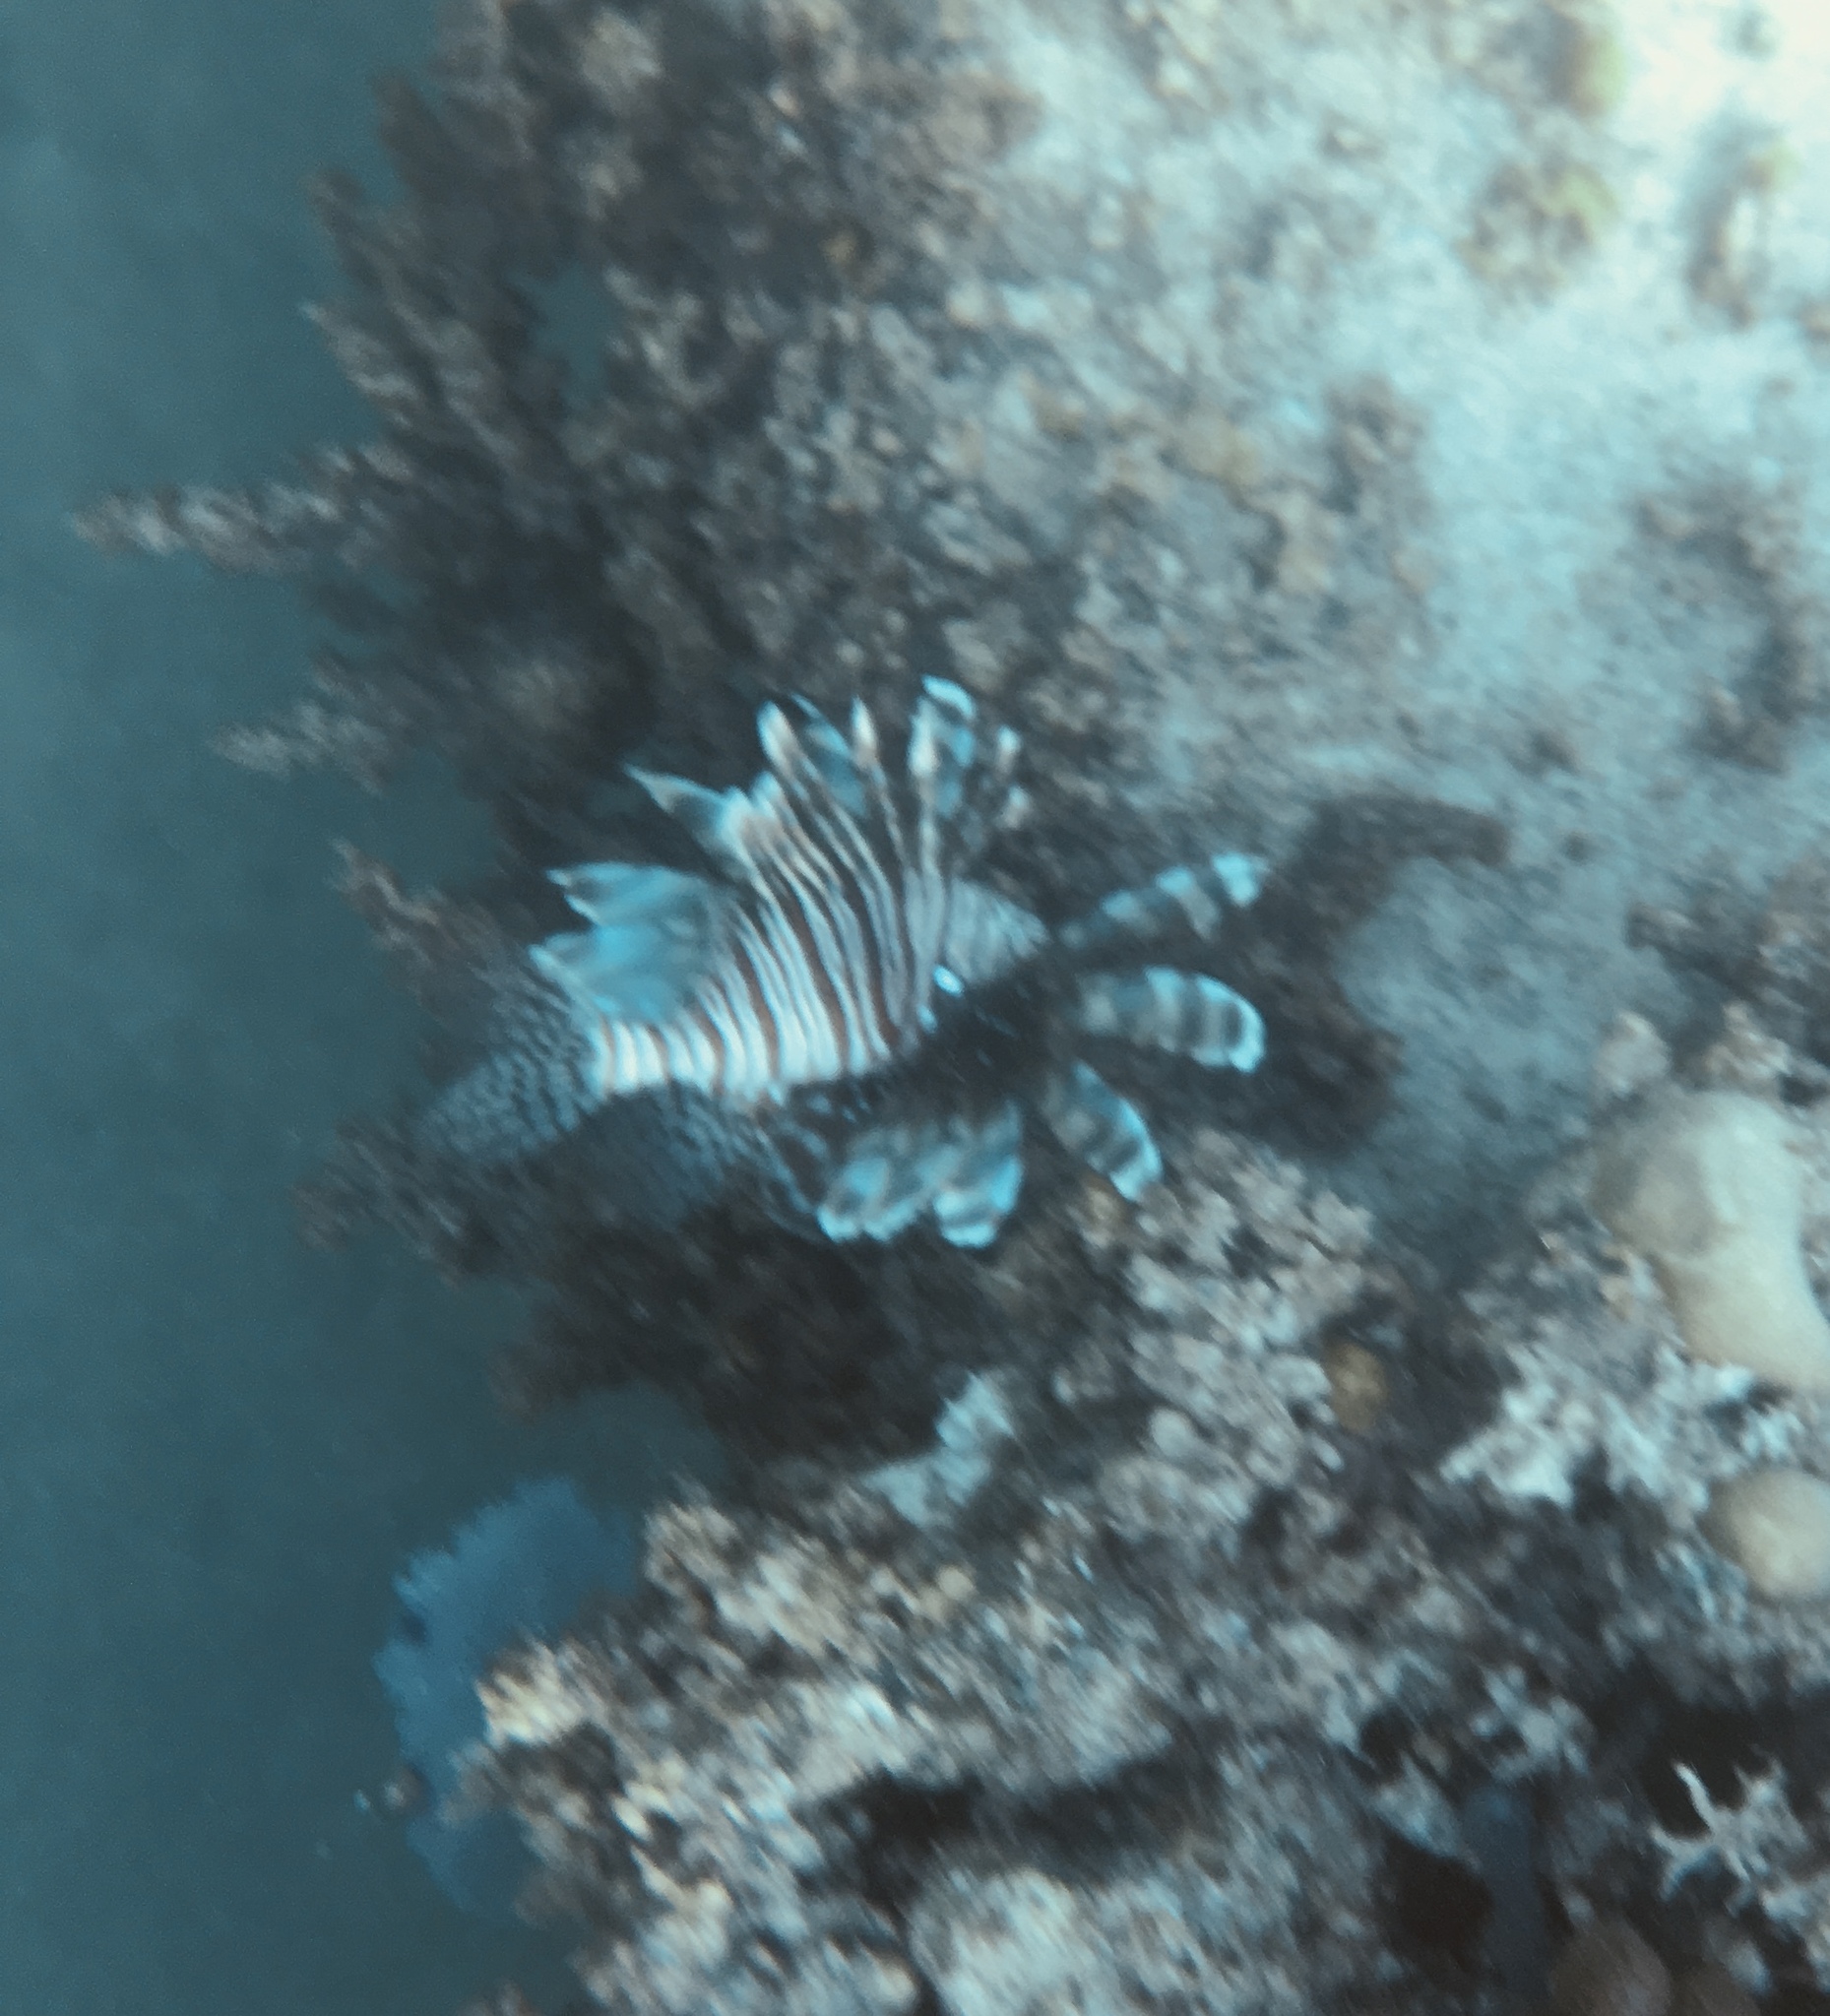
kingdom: Animalia
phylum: Chordata
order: Scorpaeniformes
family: Scorpaenidae
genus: Pterois
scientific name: Pterois volitans
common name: Lionfish
